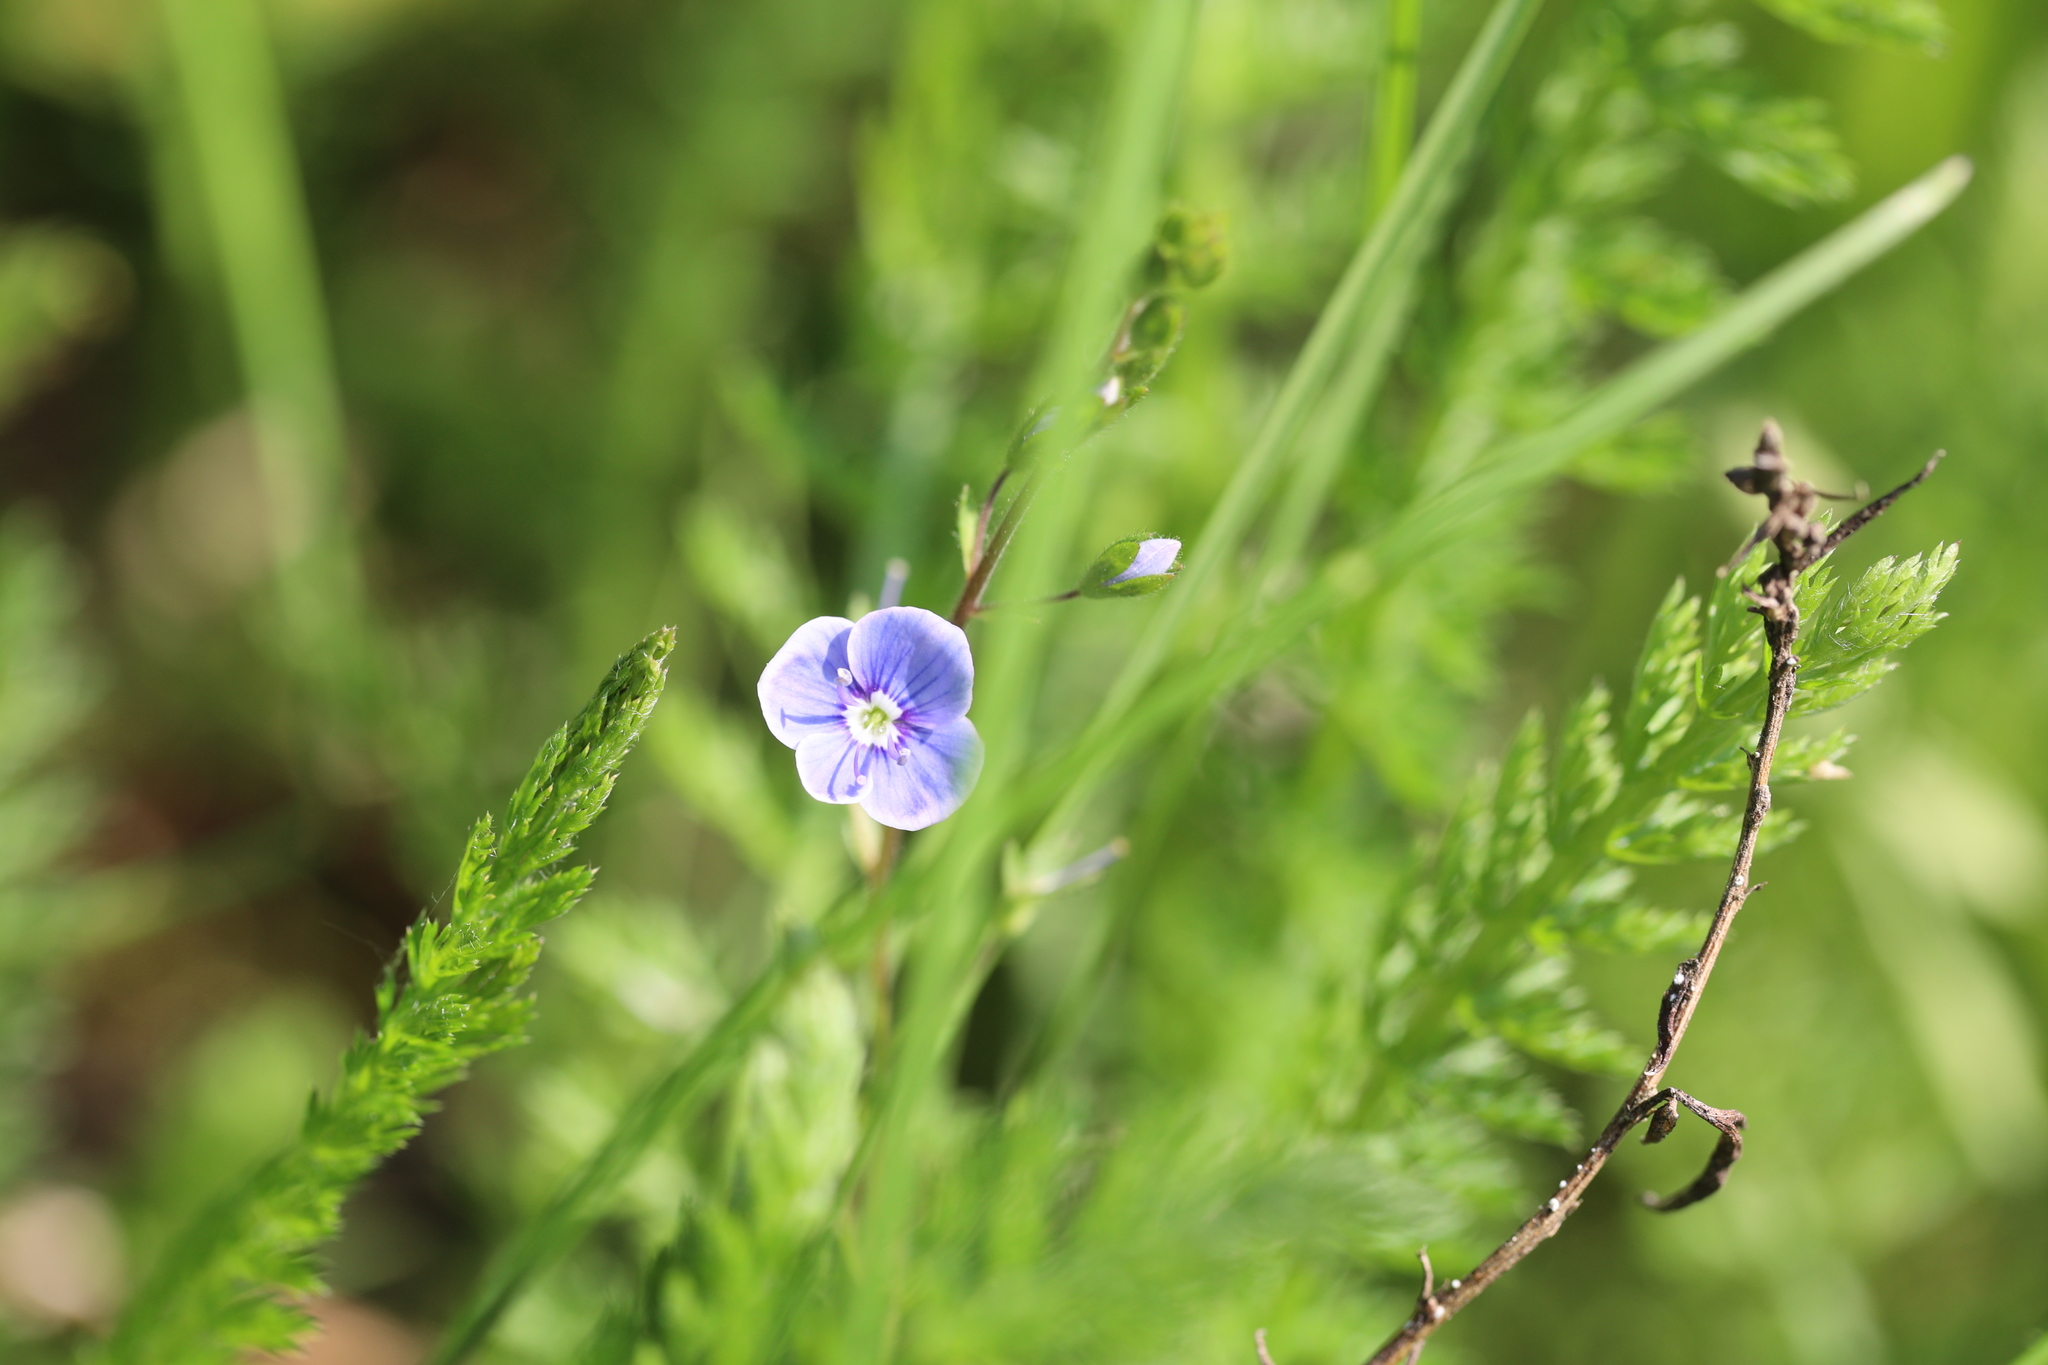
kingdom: Plantae
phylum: Tracheophyta
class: Magnoliopsida
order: Lamiales
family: Plantaginaceae
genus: Veronica
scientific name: Veronica chamaedrys
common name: Germander speedwell
